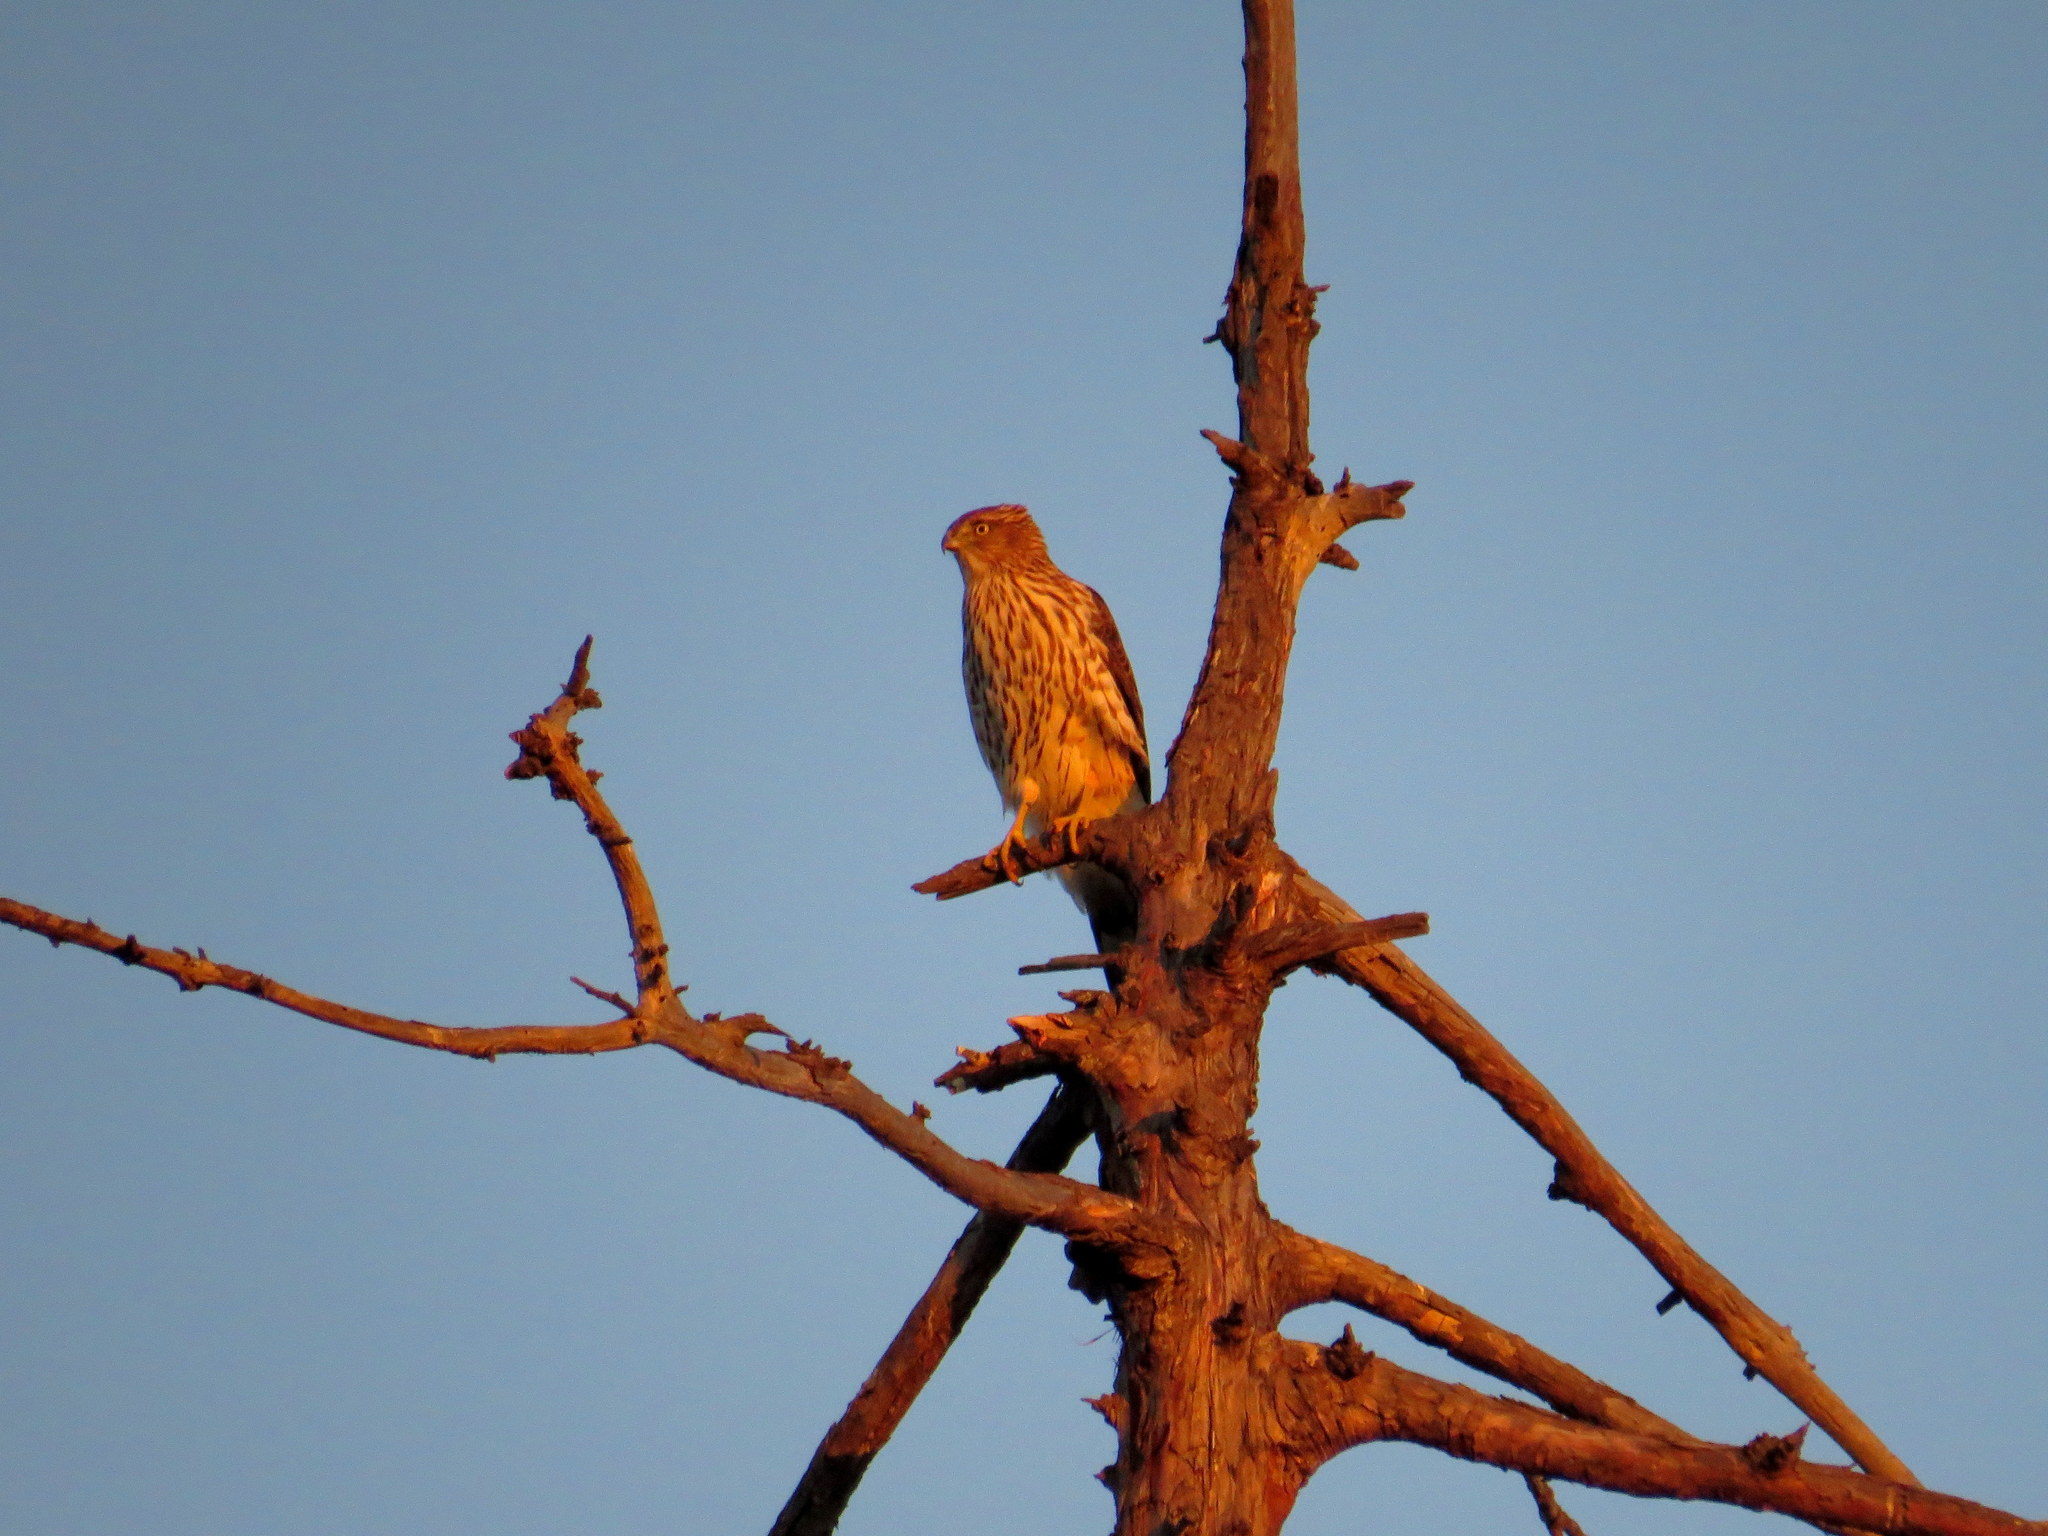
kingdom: Animalia
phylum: Chordata
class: Aves
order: Accipitriformes
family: Accipitridae
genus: Accipiter
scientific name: Accipiter cooperii
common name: Cooper's hawk
